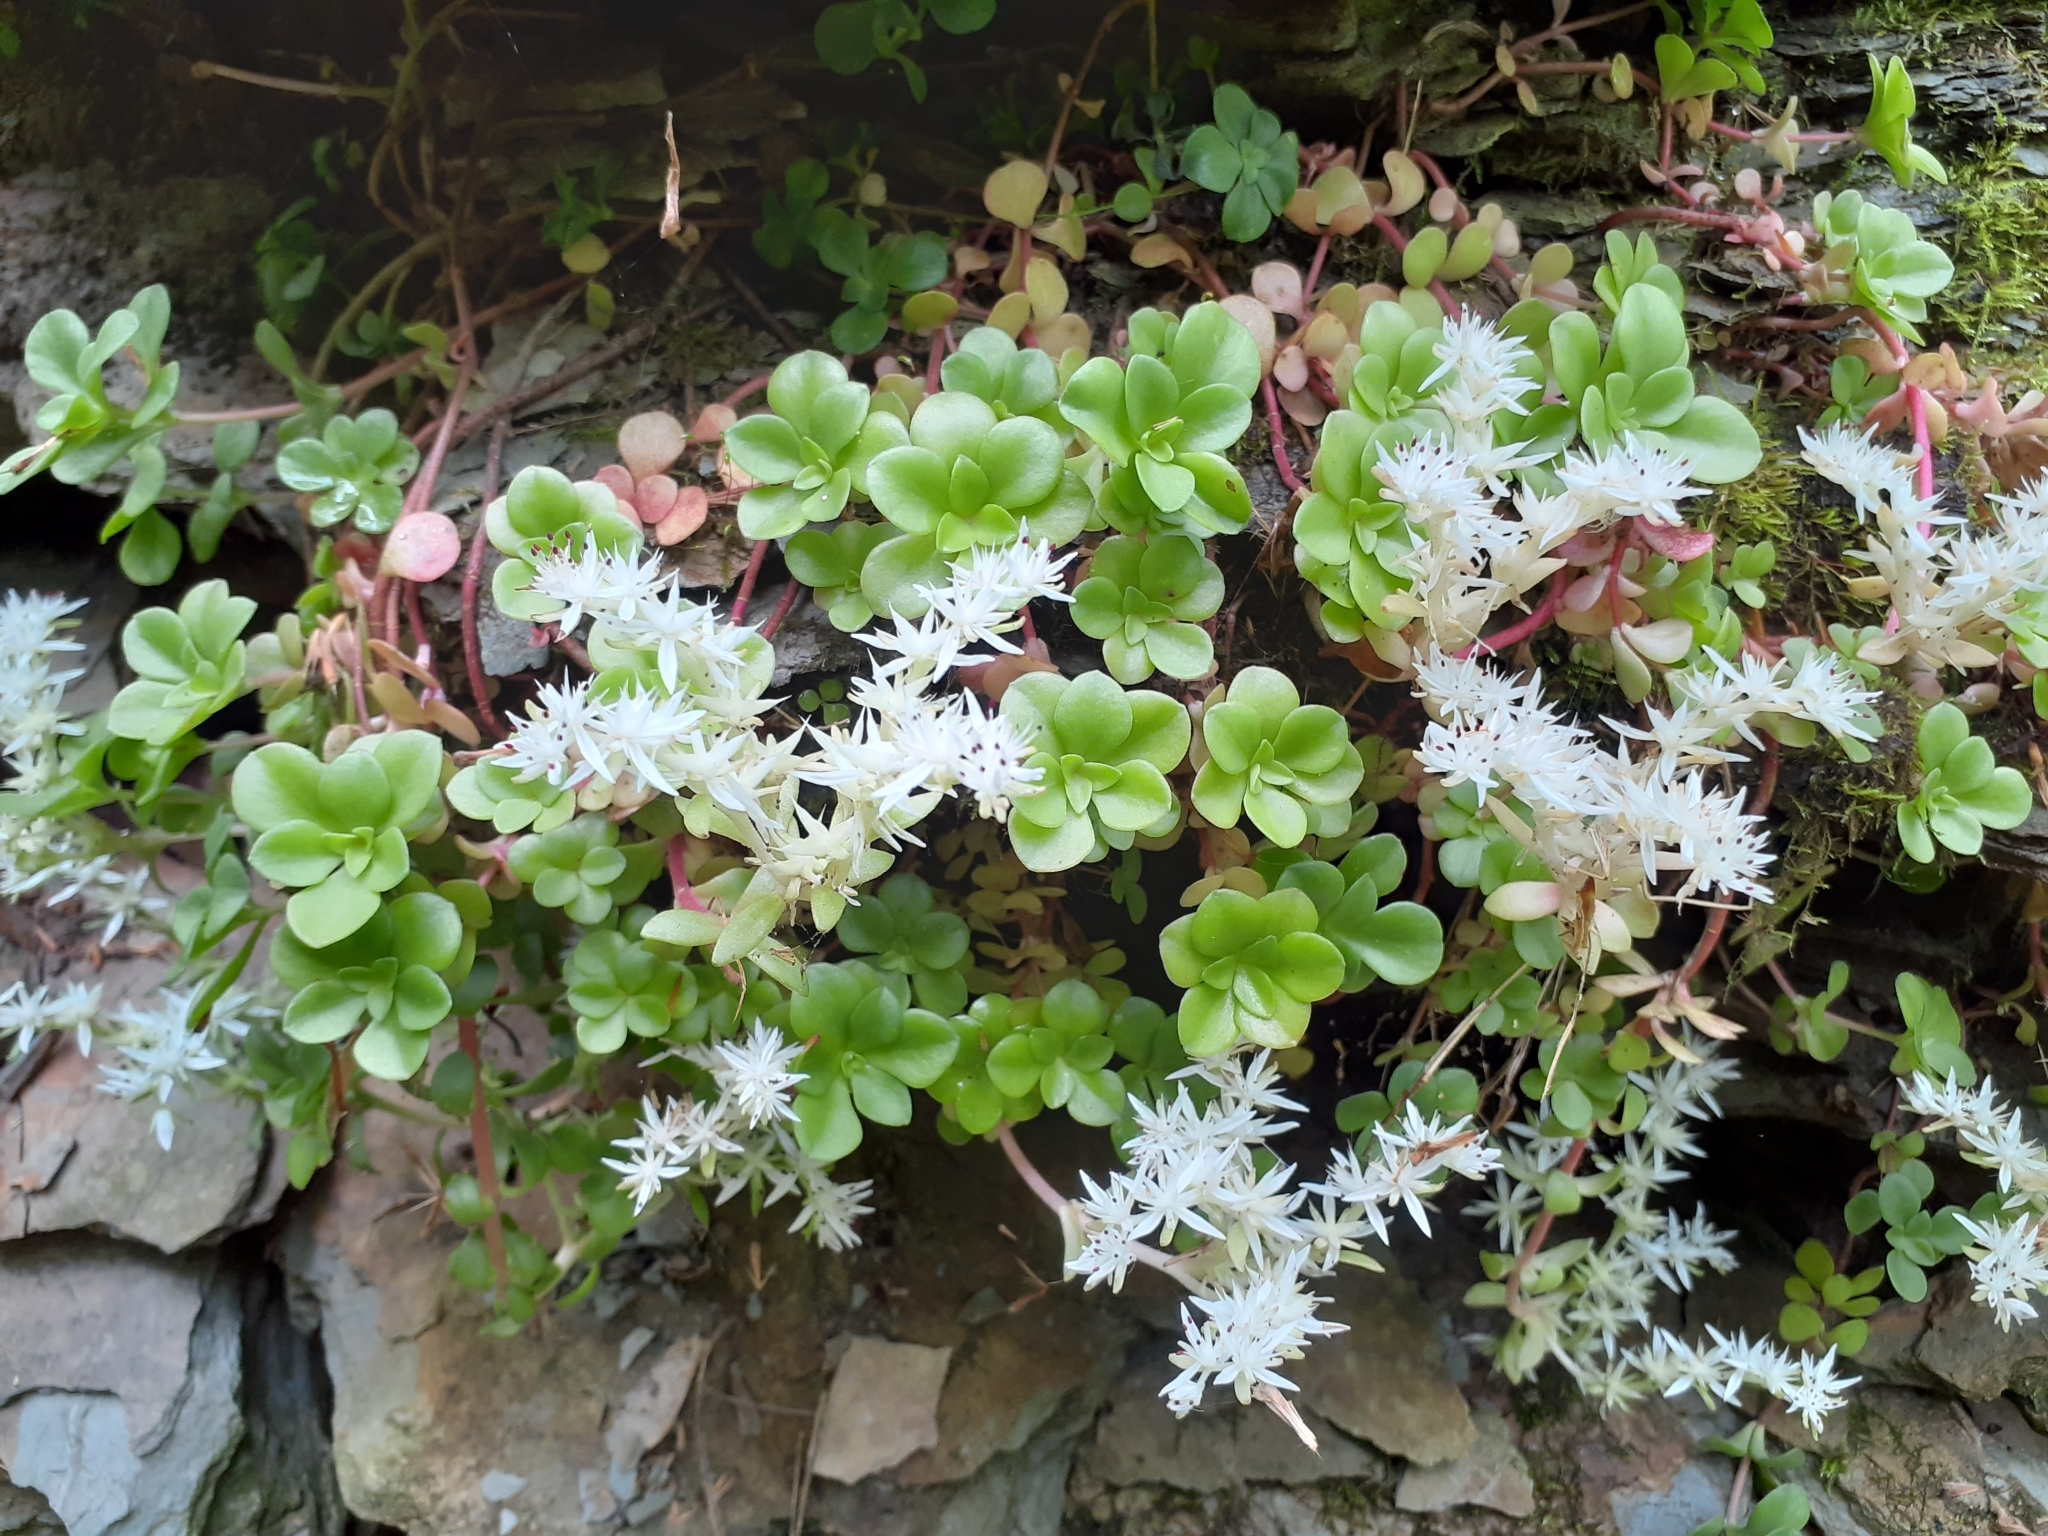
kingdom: Plantae
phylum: Tracheophyta
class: Magnoliopsida
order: Saxifragales
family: Crassulaceae
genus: Sedum
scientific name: Sedum ternatum
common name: Wild stonecrop
